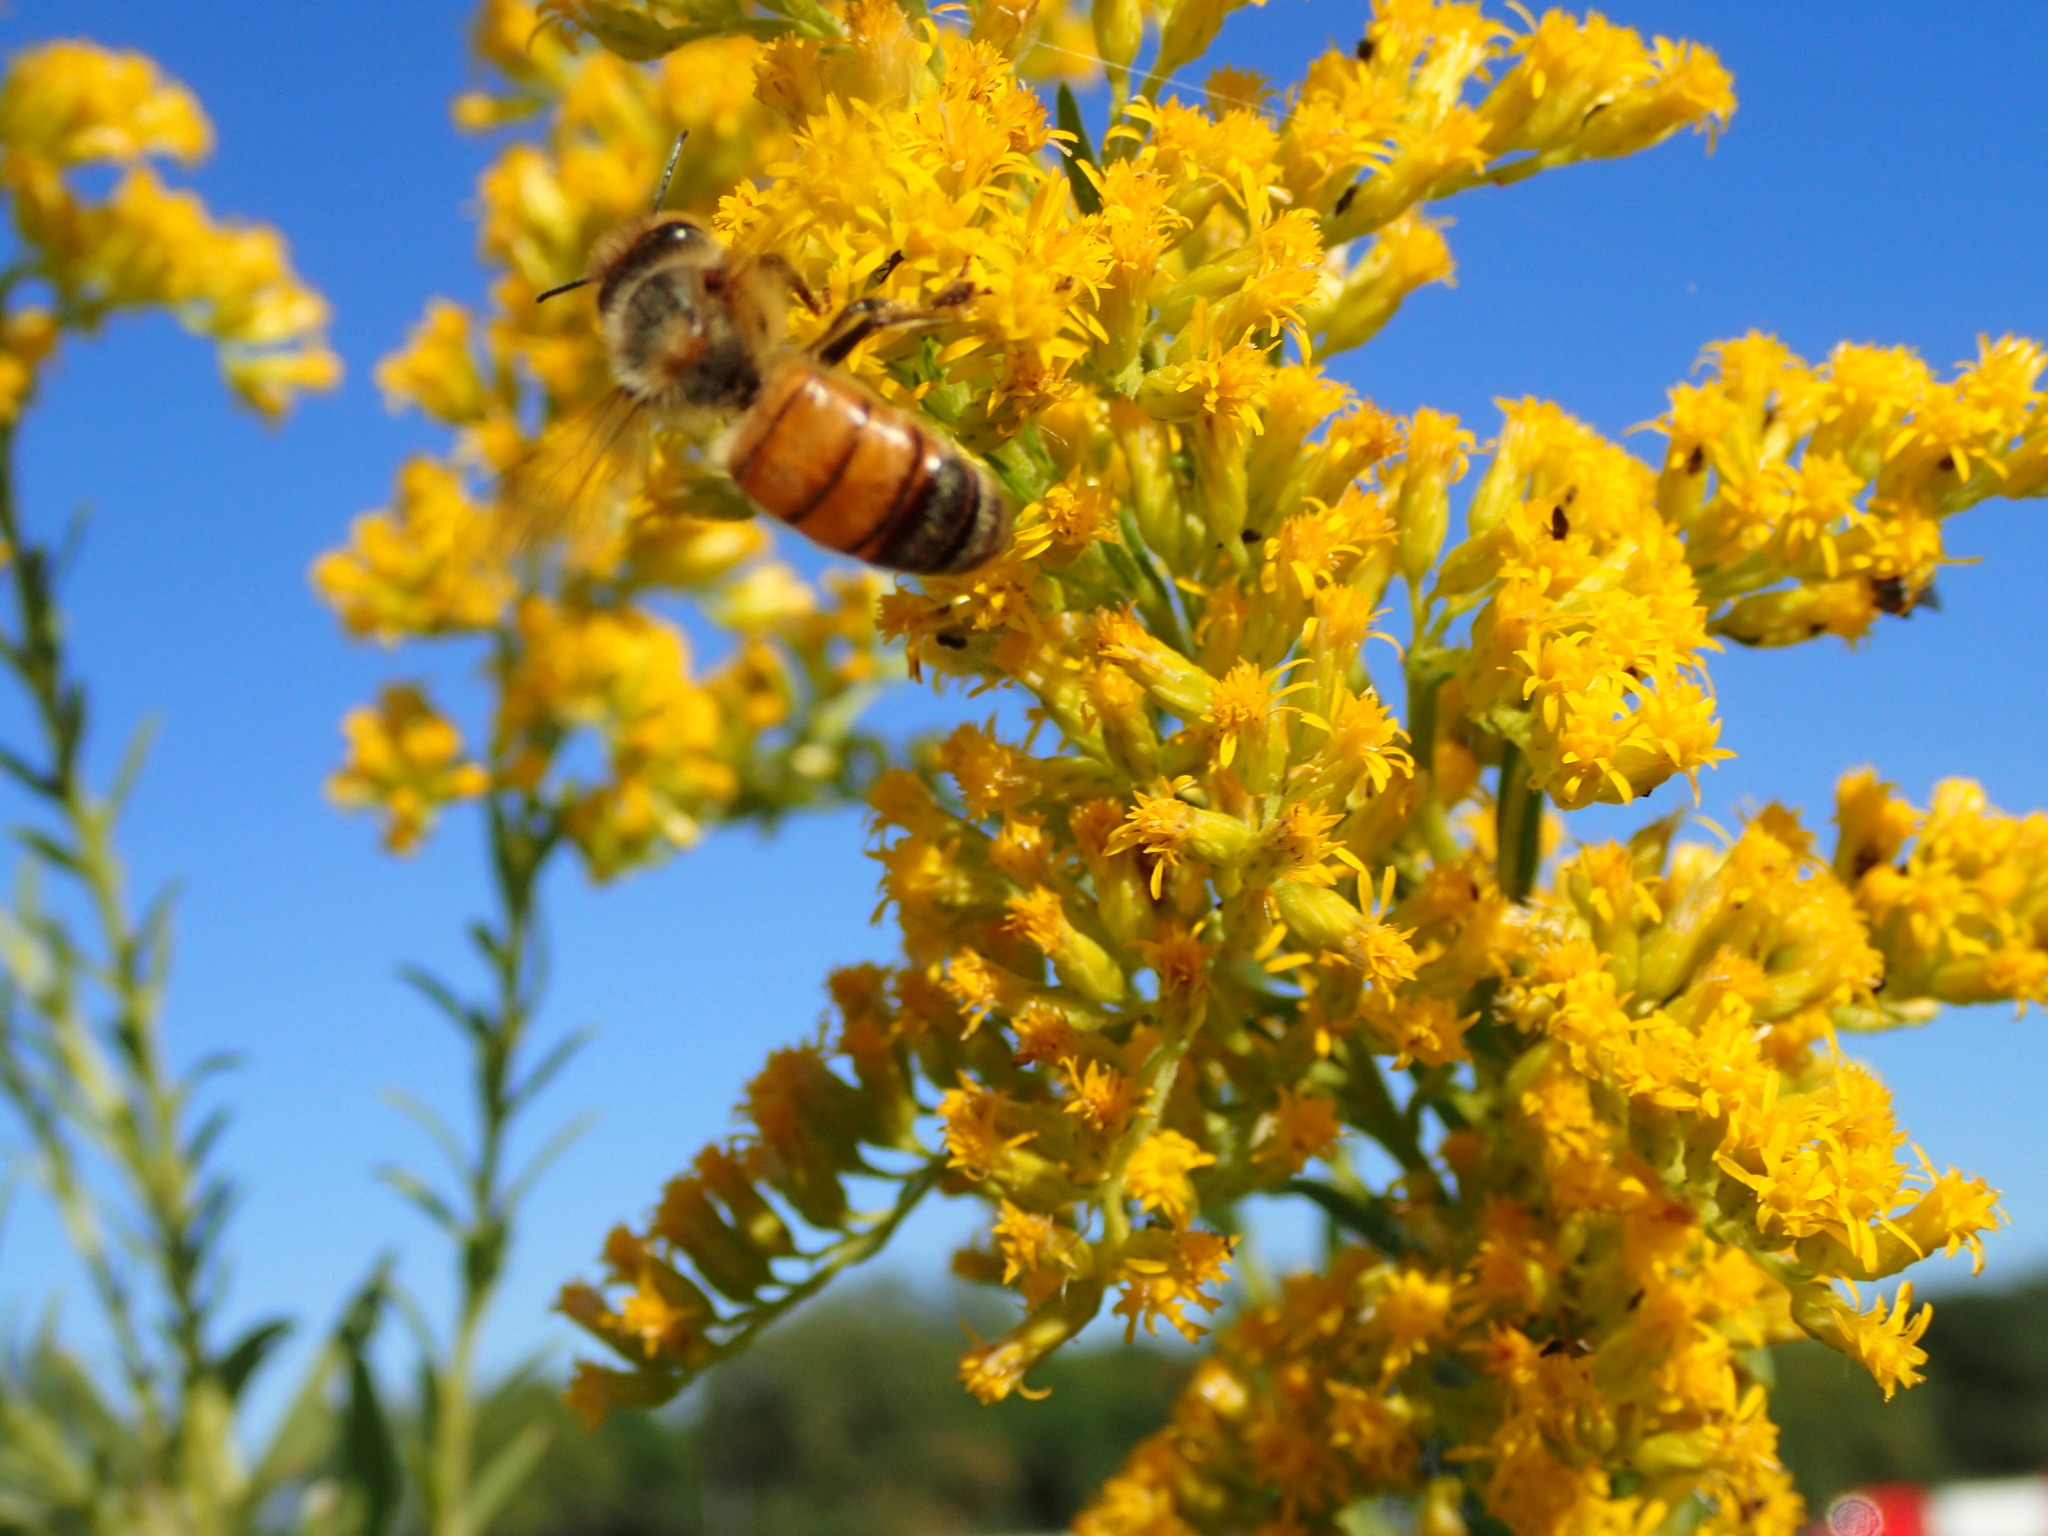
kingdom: Animalia
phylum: Arthropoda
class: Insecta
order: Hymenoptera
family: Apidae
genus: Apis
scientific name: Apis mellifera
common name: Honey bee
